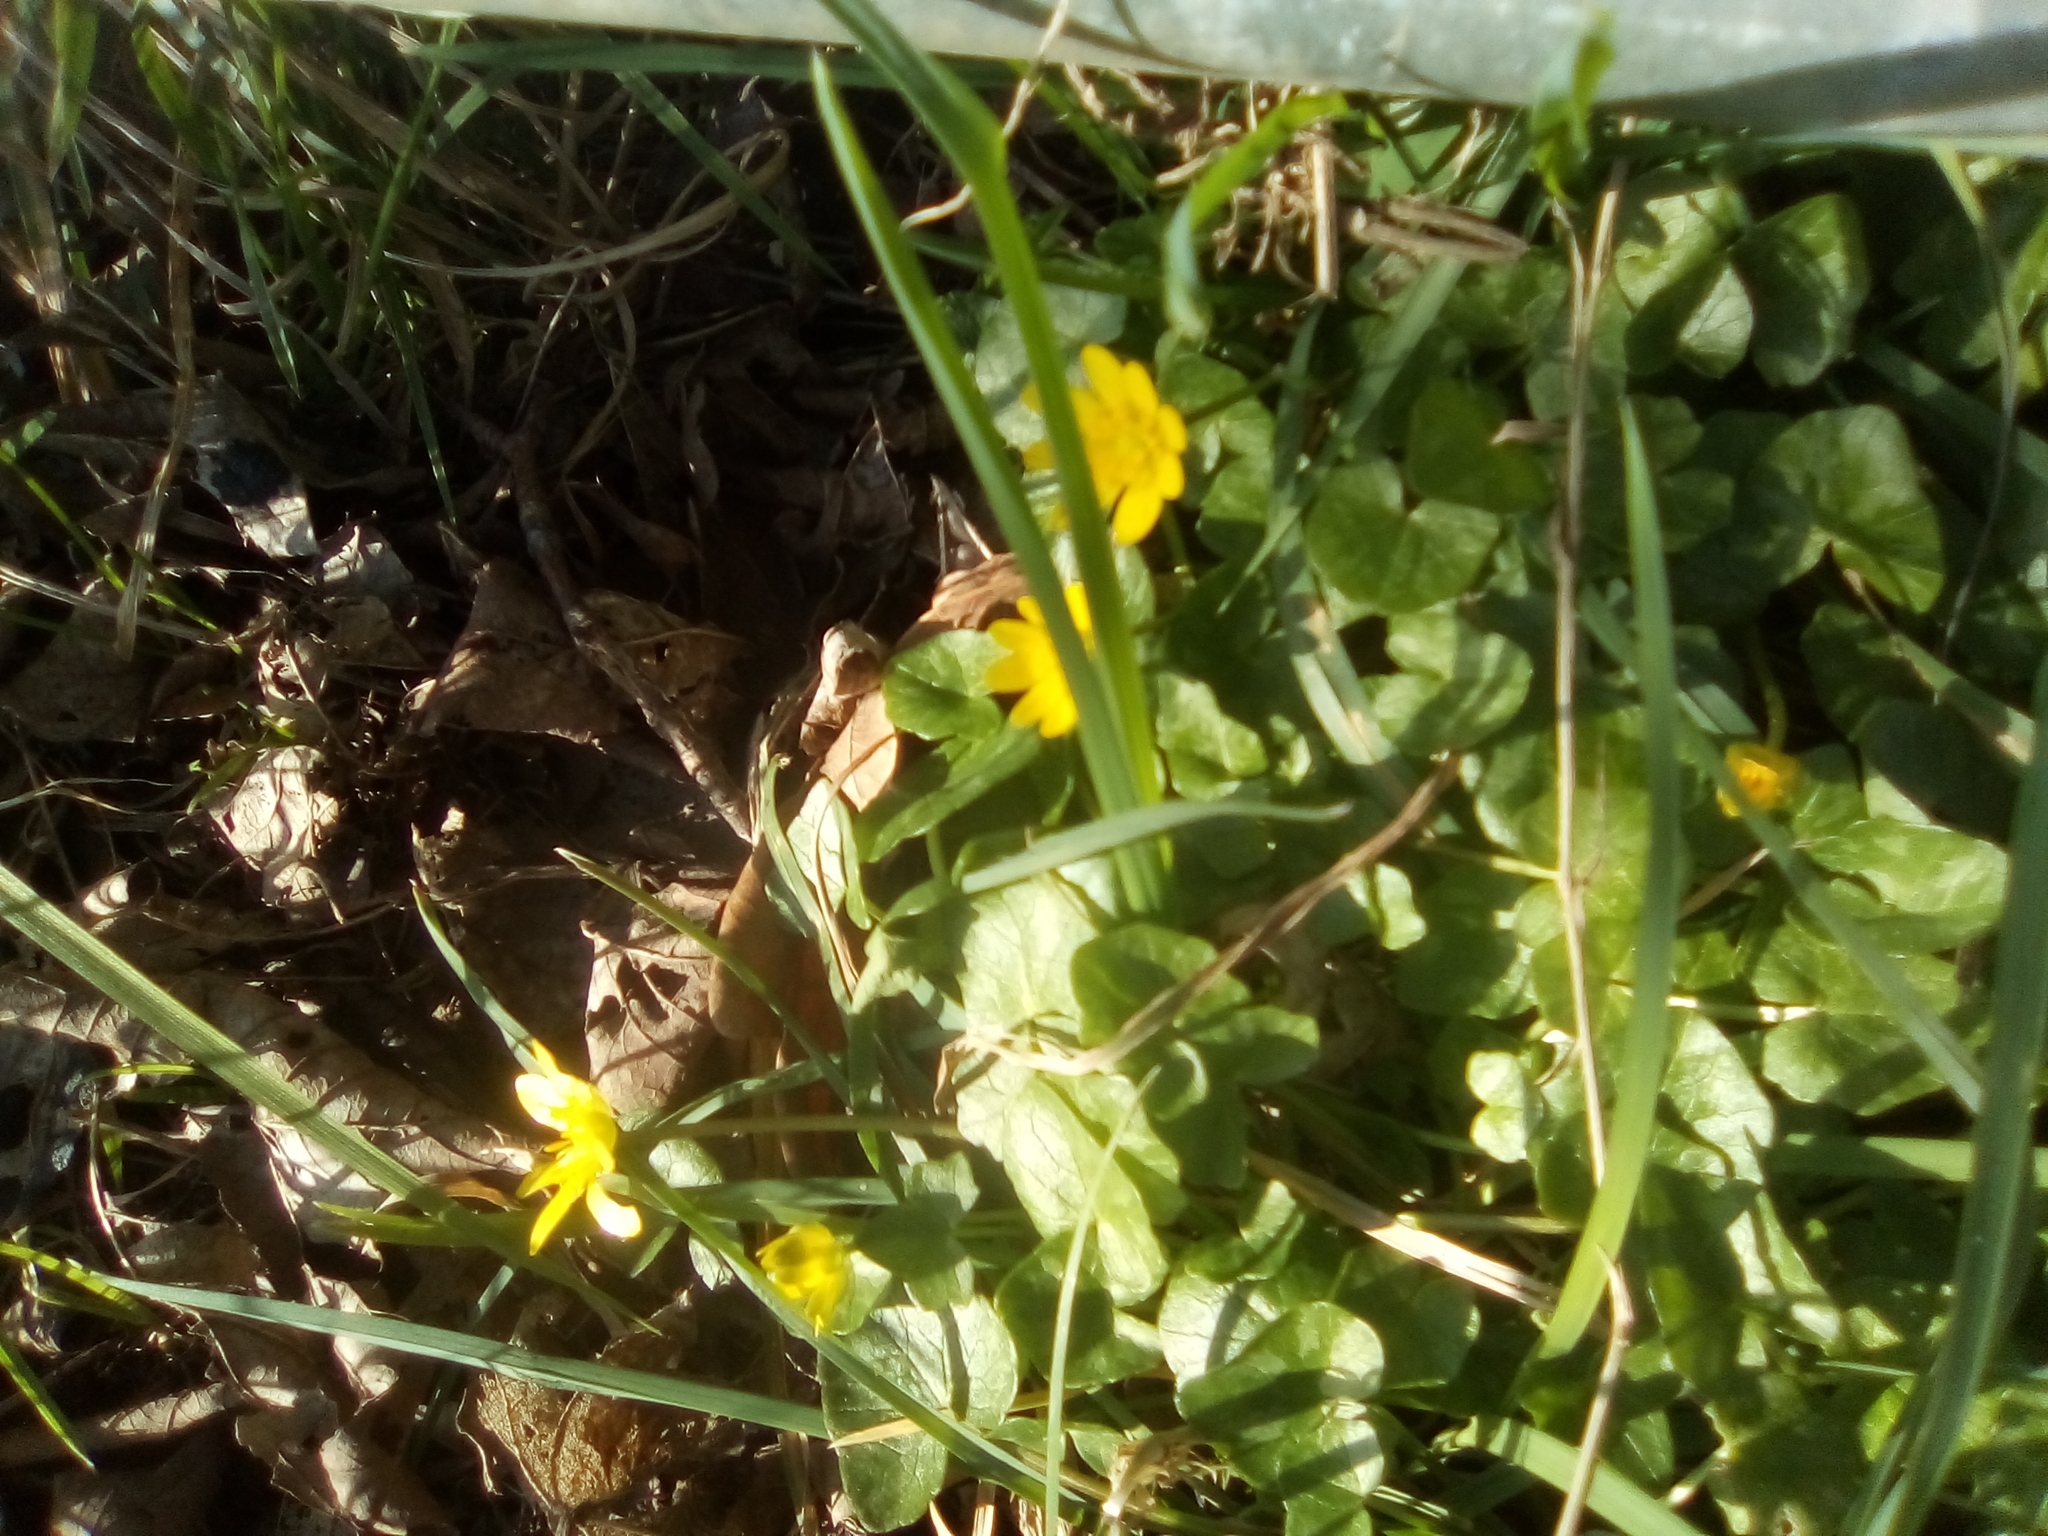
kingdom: Plantae
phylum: Tracheophyta
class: Magnoliopsida
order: Ranunculales
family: Ranunculaceae
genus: Ficaria
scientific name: Ficaria verna
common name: Lesser celandine
